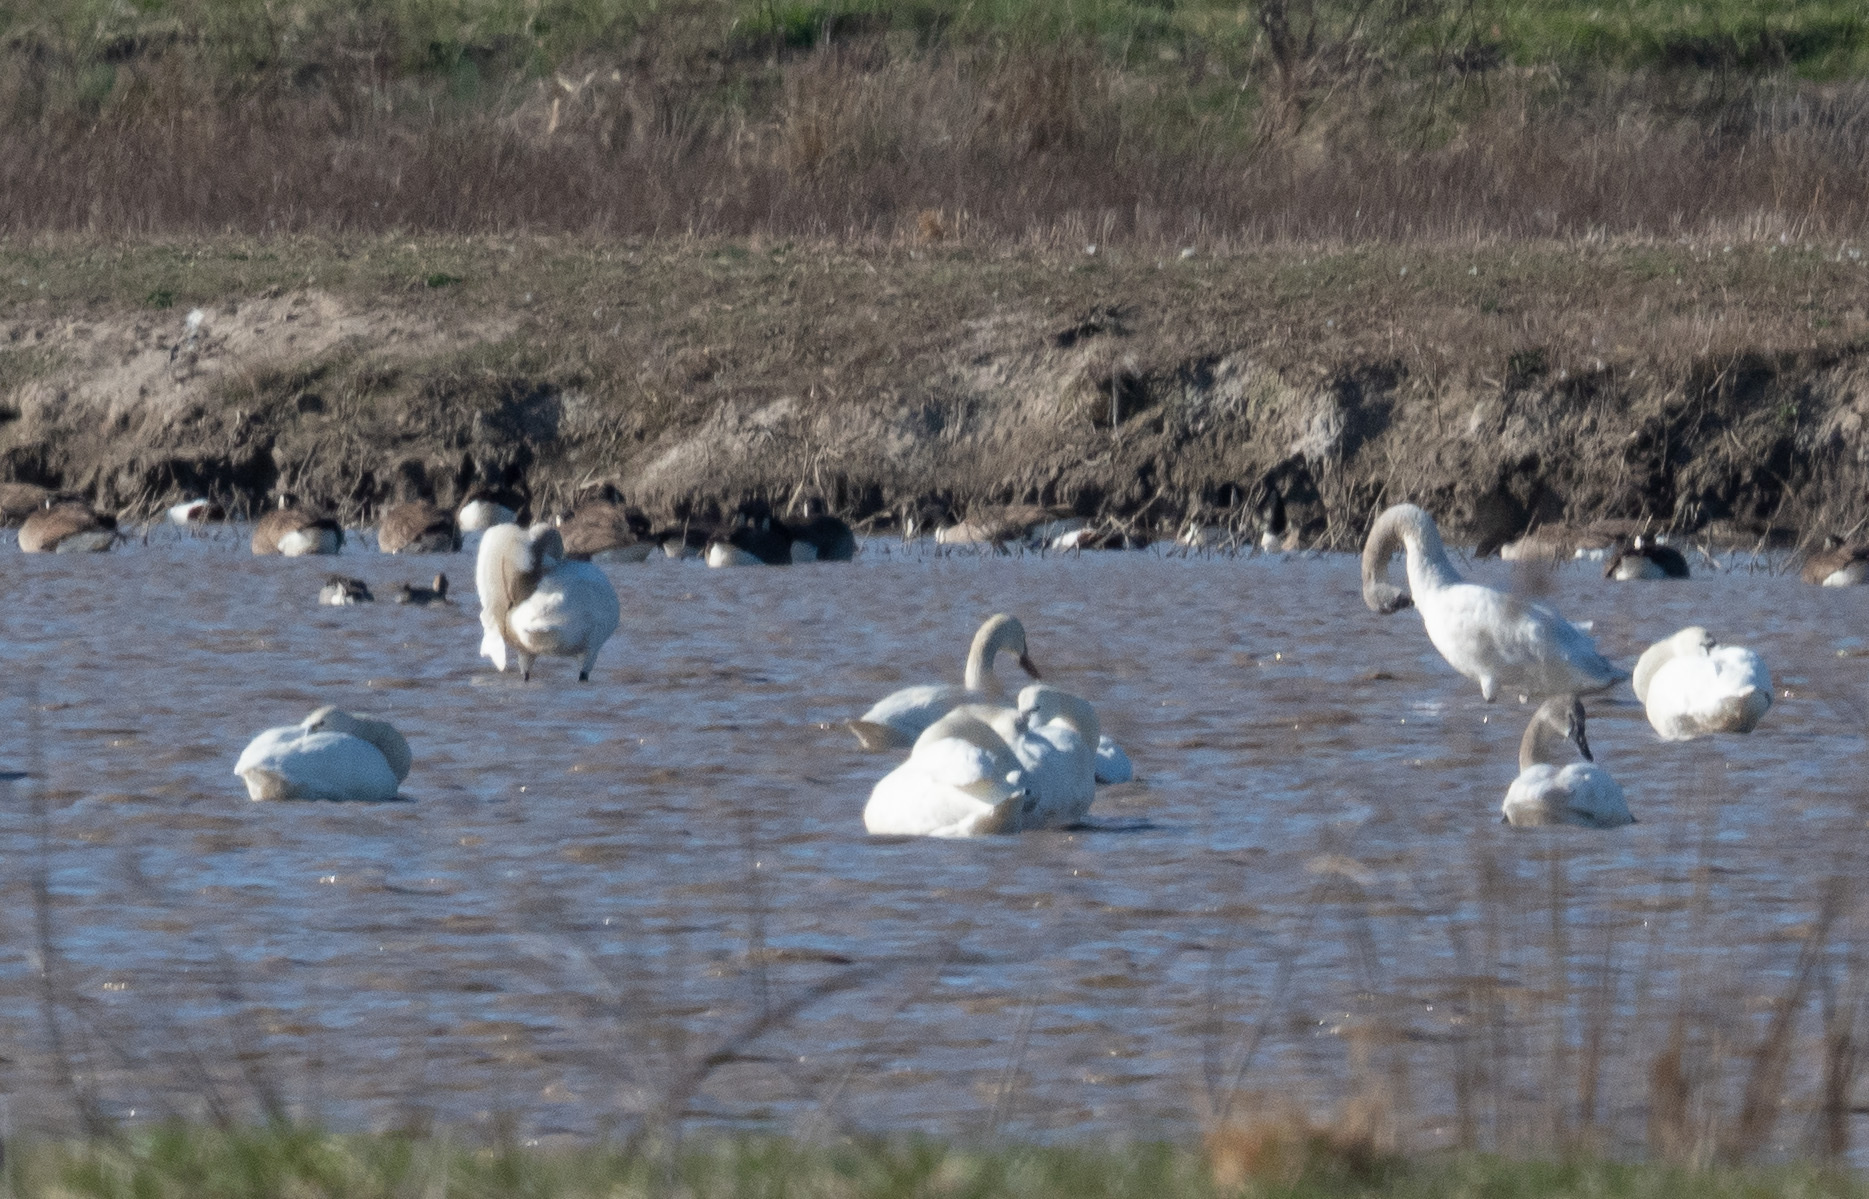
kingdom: Animalia
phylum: Chordata
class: Aves
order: Anseriformes
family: Anatidae
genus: Cygnus
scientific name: Cygnus columbianus
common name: Tundra swan
